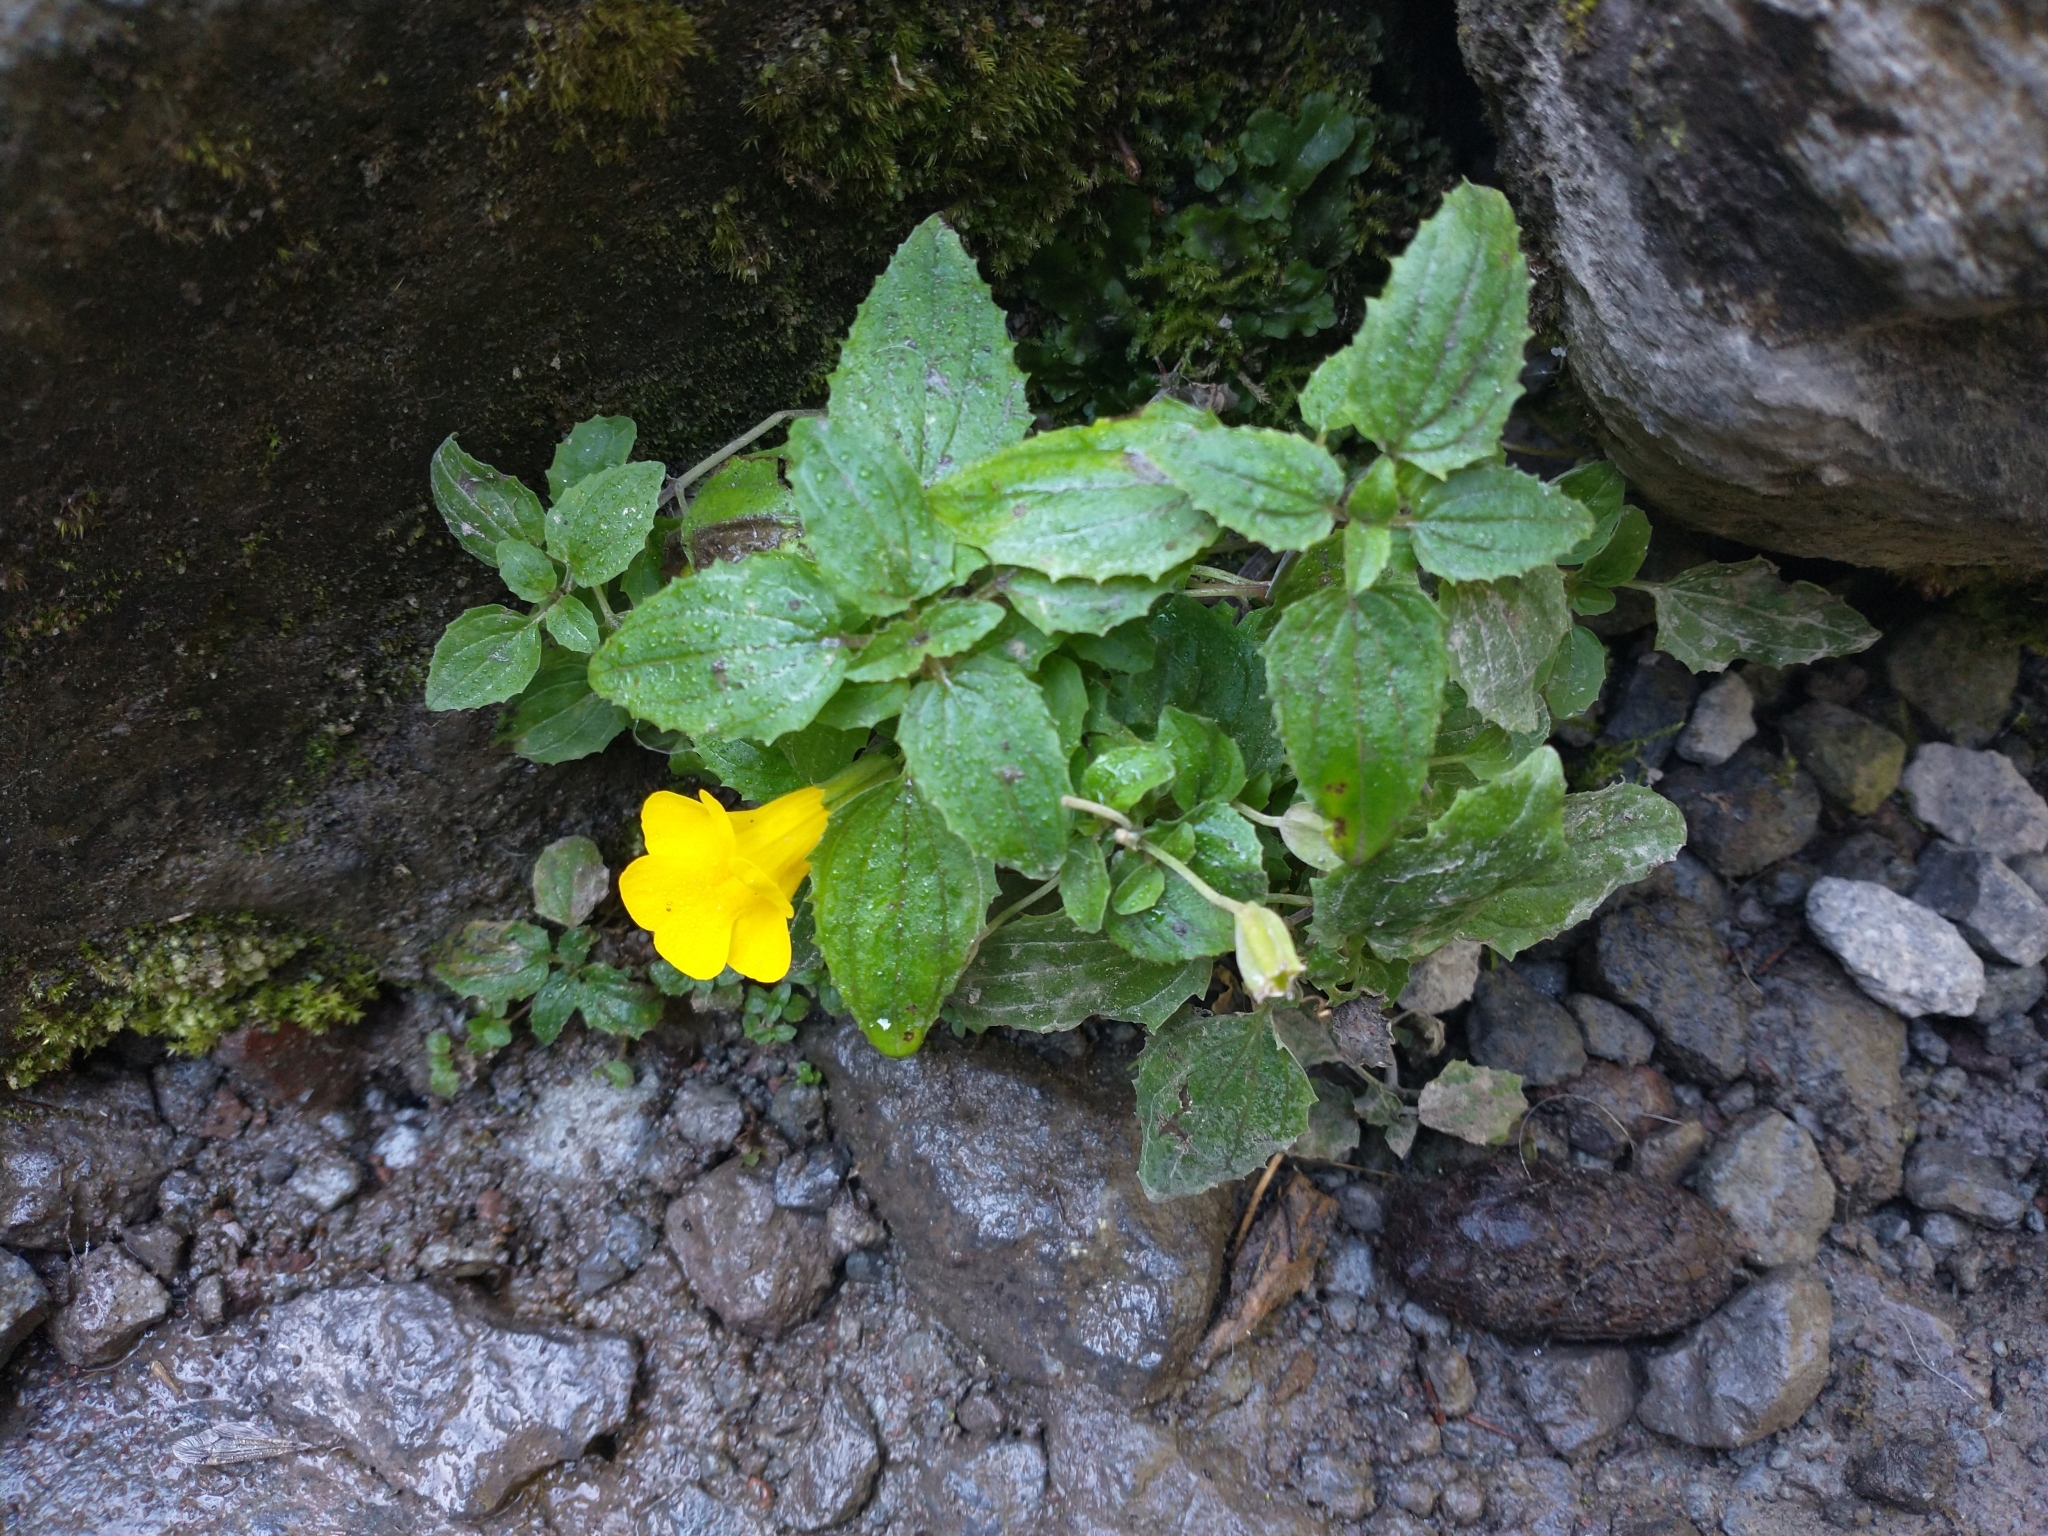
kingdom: Plantae
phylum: Tracheophyta
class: Magnoliopsida
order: Lamiales
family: Phrymaceae
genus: Erythranthe
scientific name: Erythranthe decora
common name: Mannered monkeyflower
